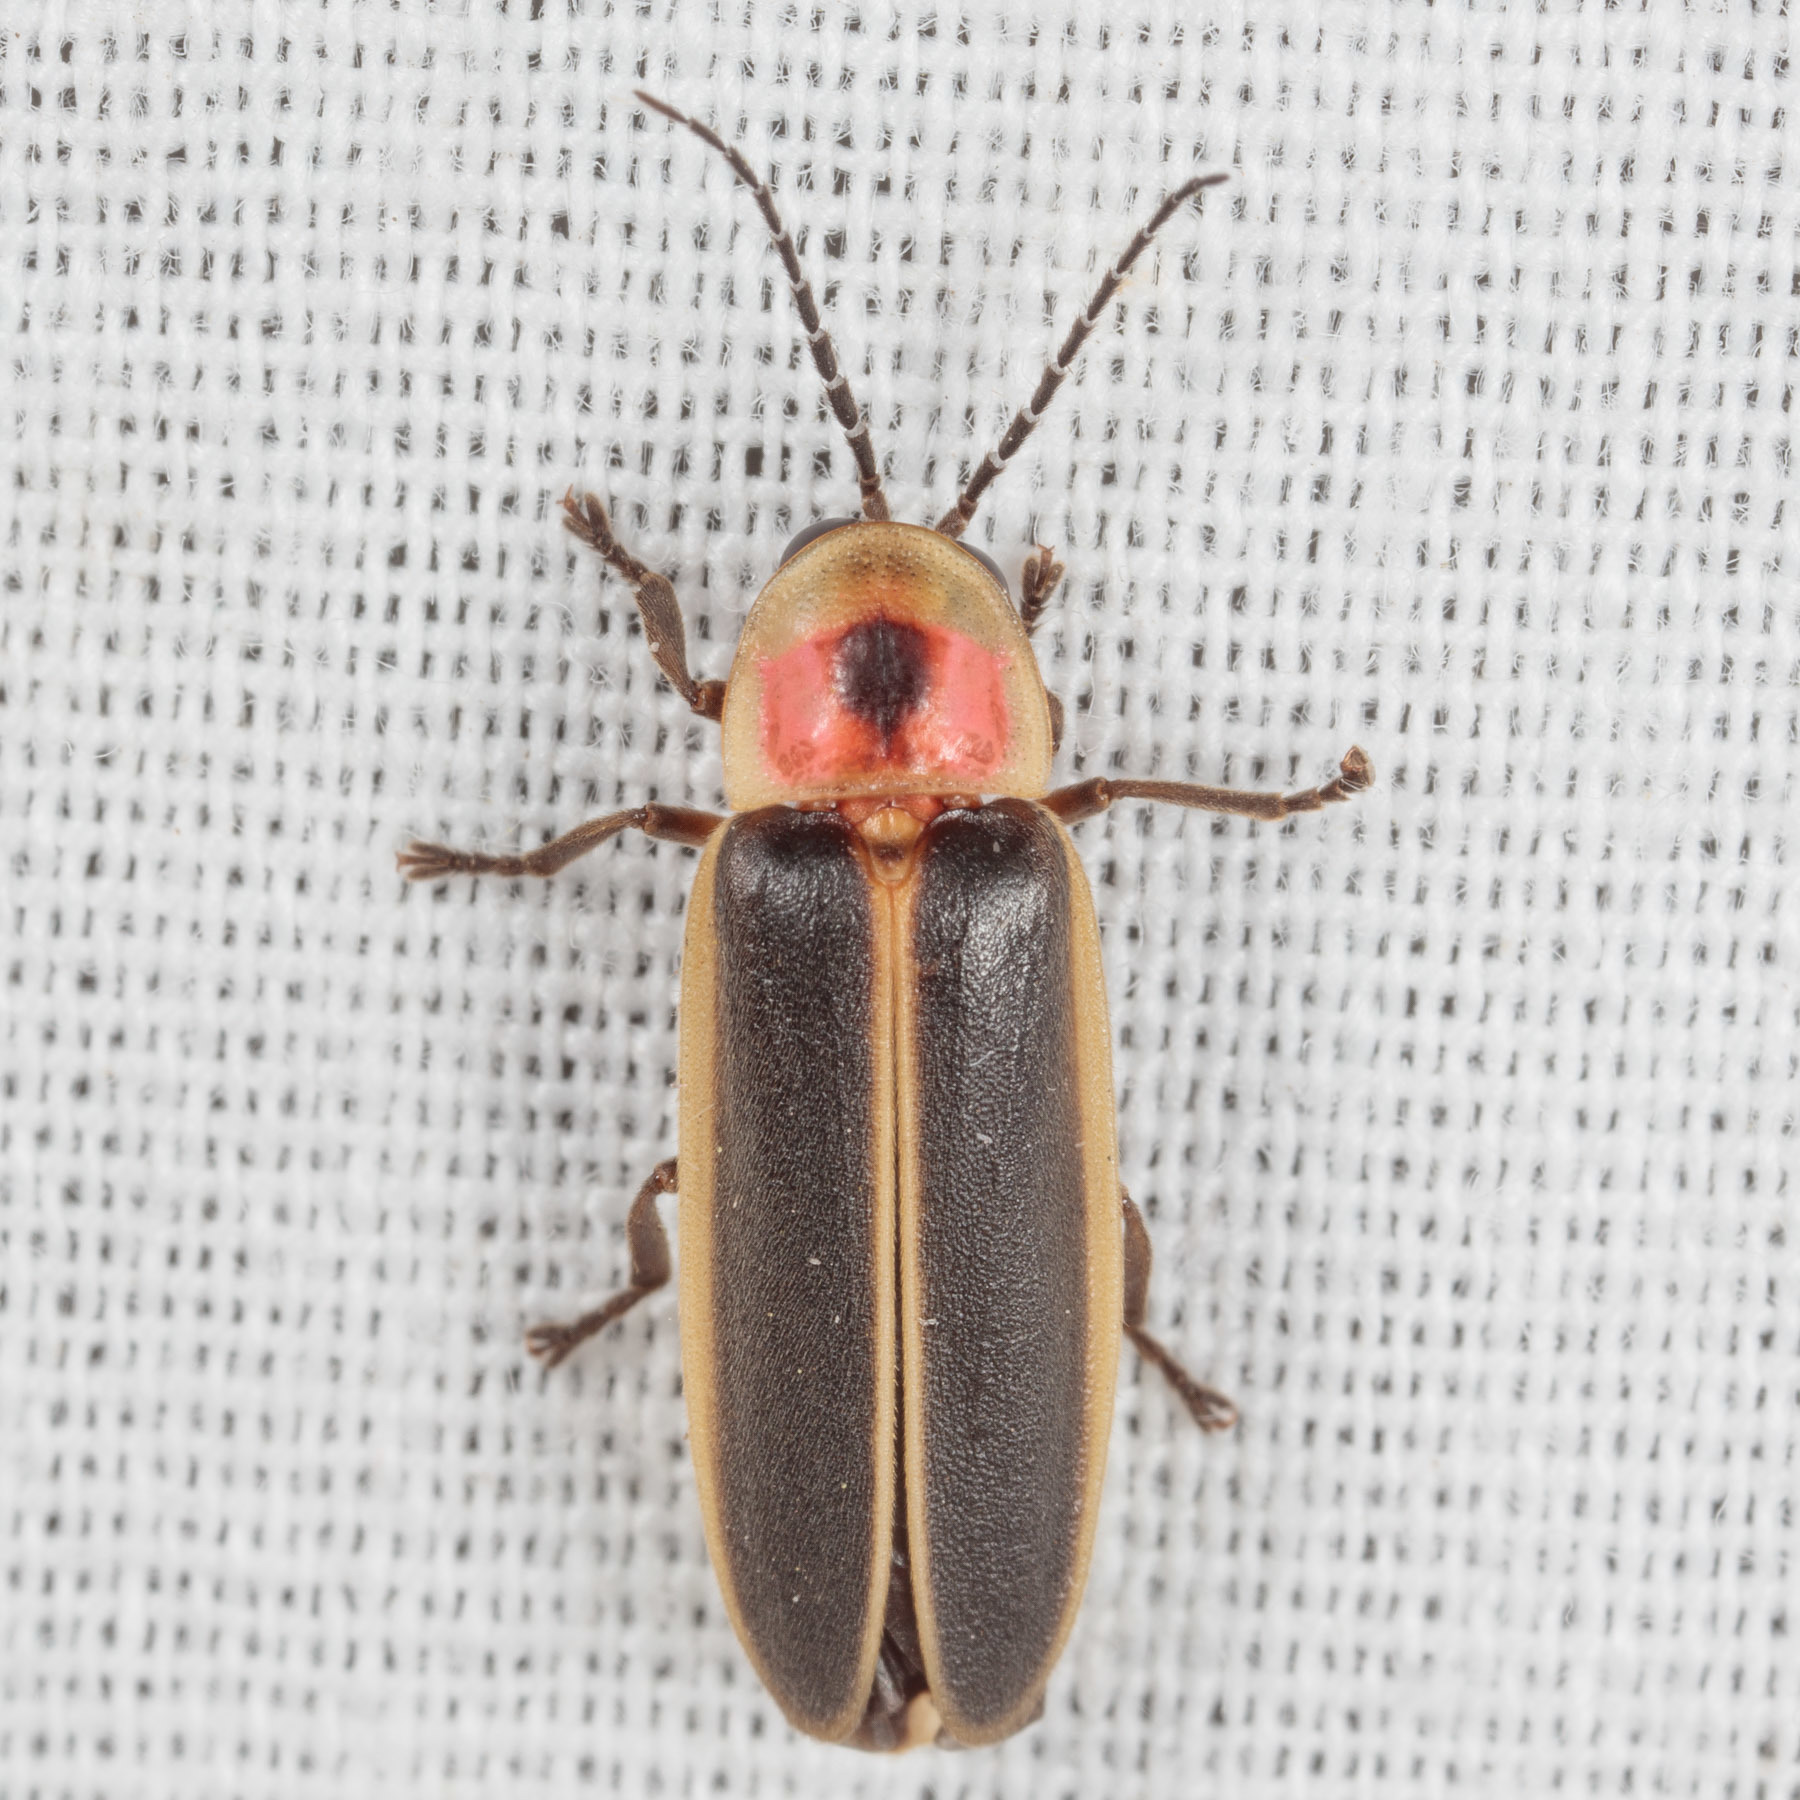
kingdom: Animalia
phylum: Arthropoda
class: Insecta
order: Coleoptera
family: Lampyridae
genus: Photinus
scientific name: Photinus pyralis
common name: Big dipper firefly
